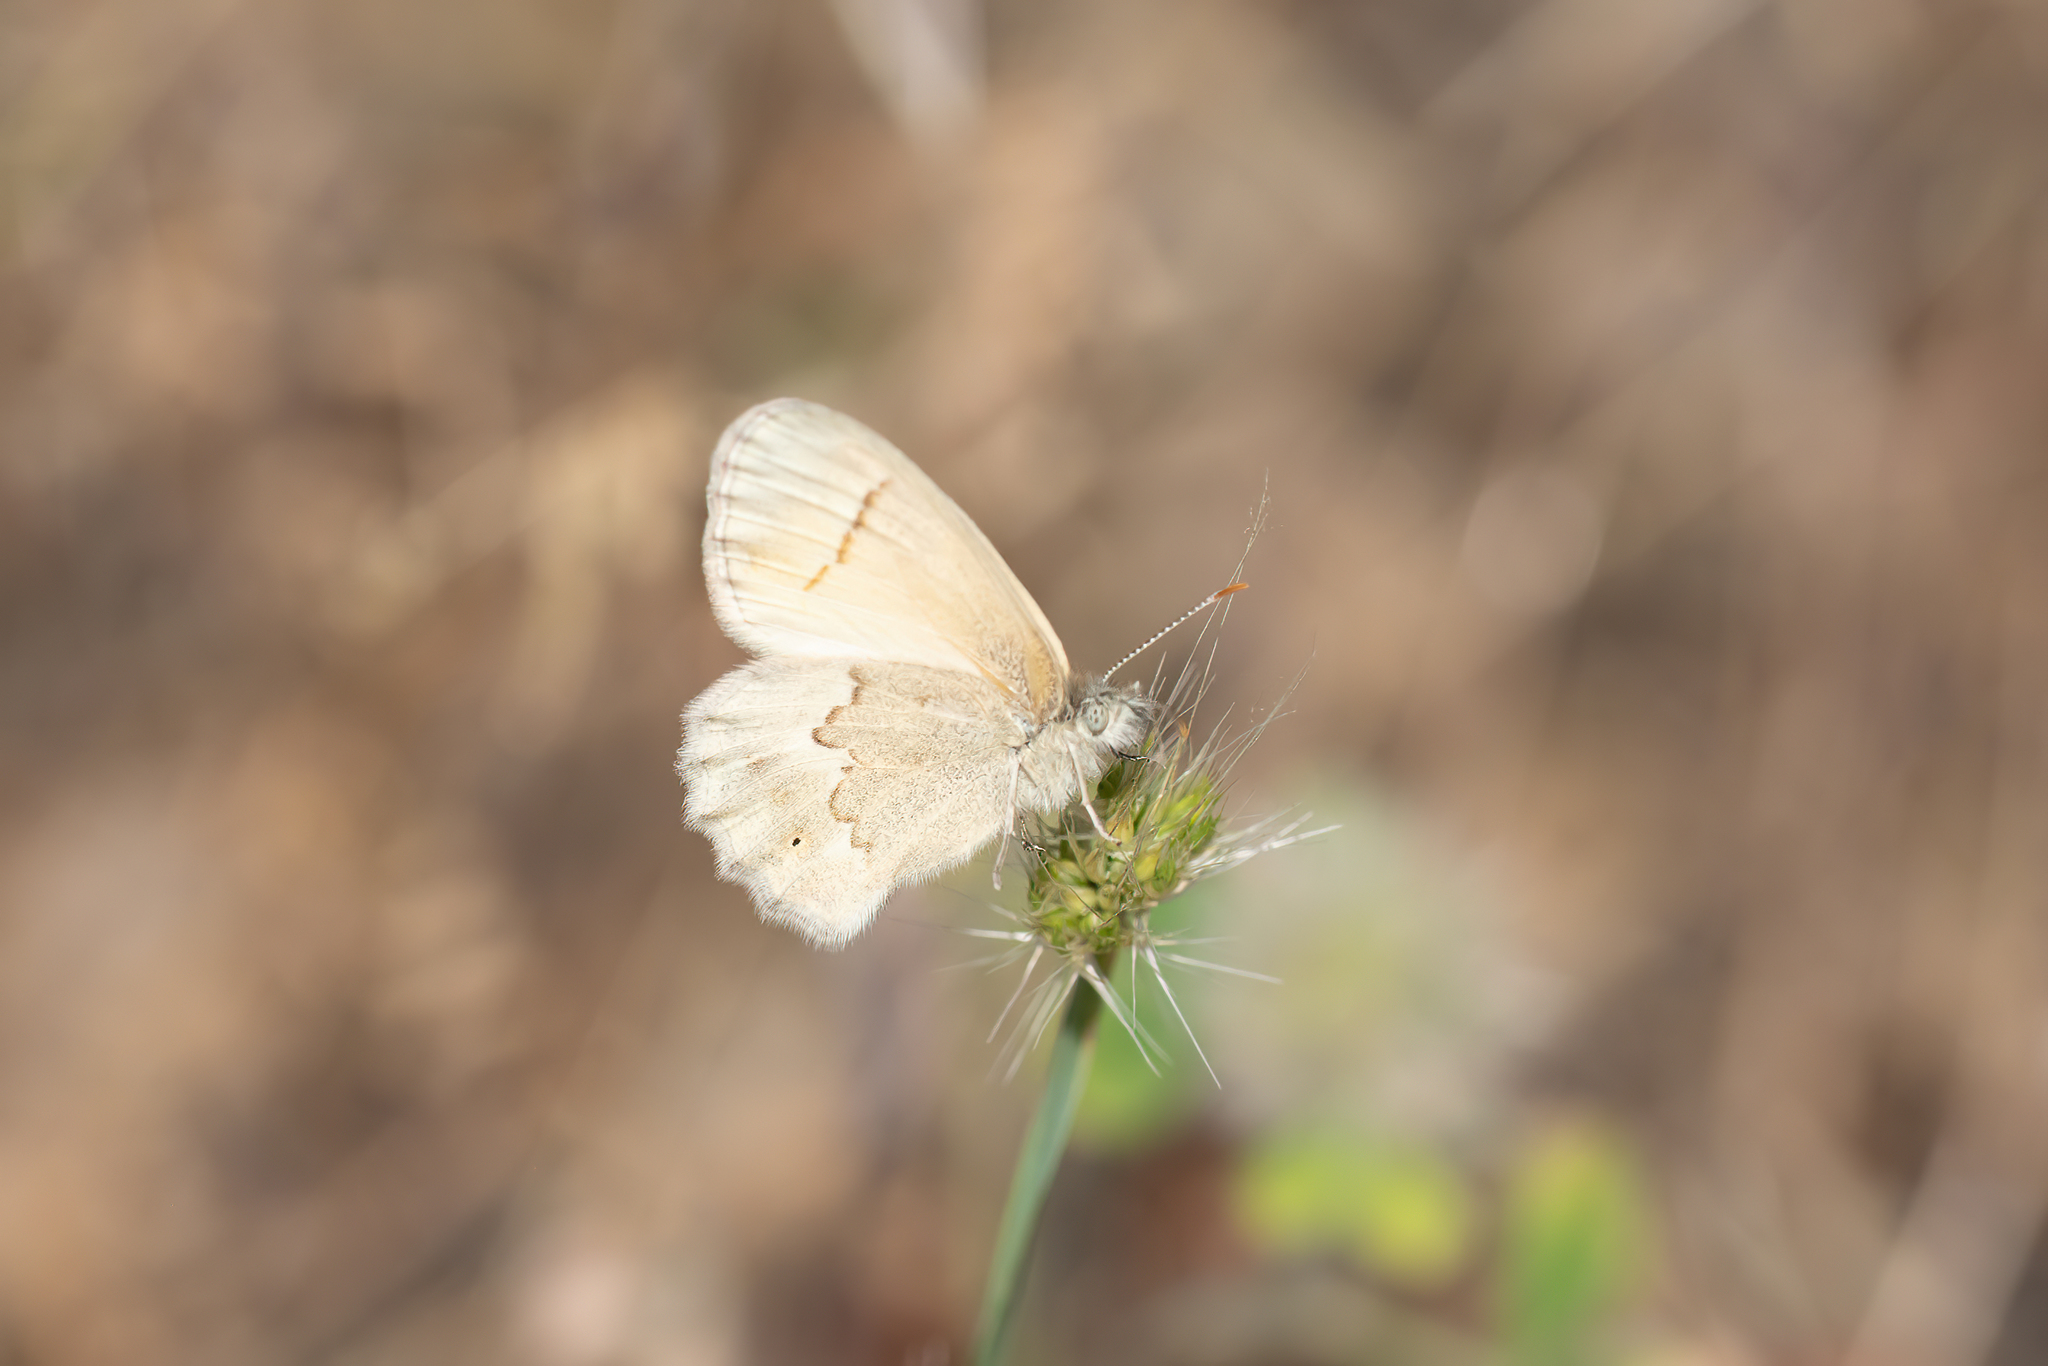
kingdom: Animalia
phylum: Arthropoda
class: Insecta
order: Lepidoptera
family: Nymphalidae
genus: Coenonympha
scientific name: Coenonympha california
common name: Common ringlet
